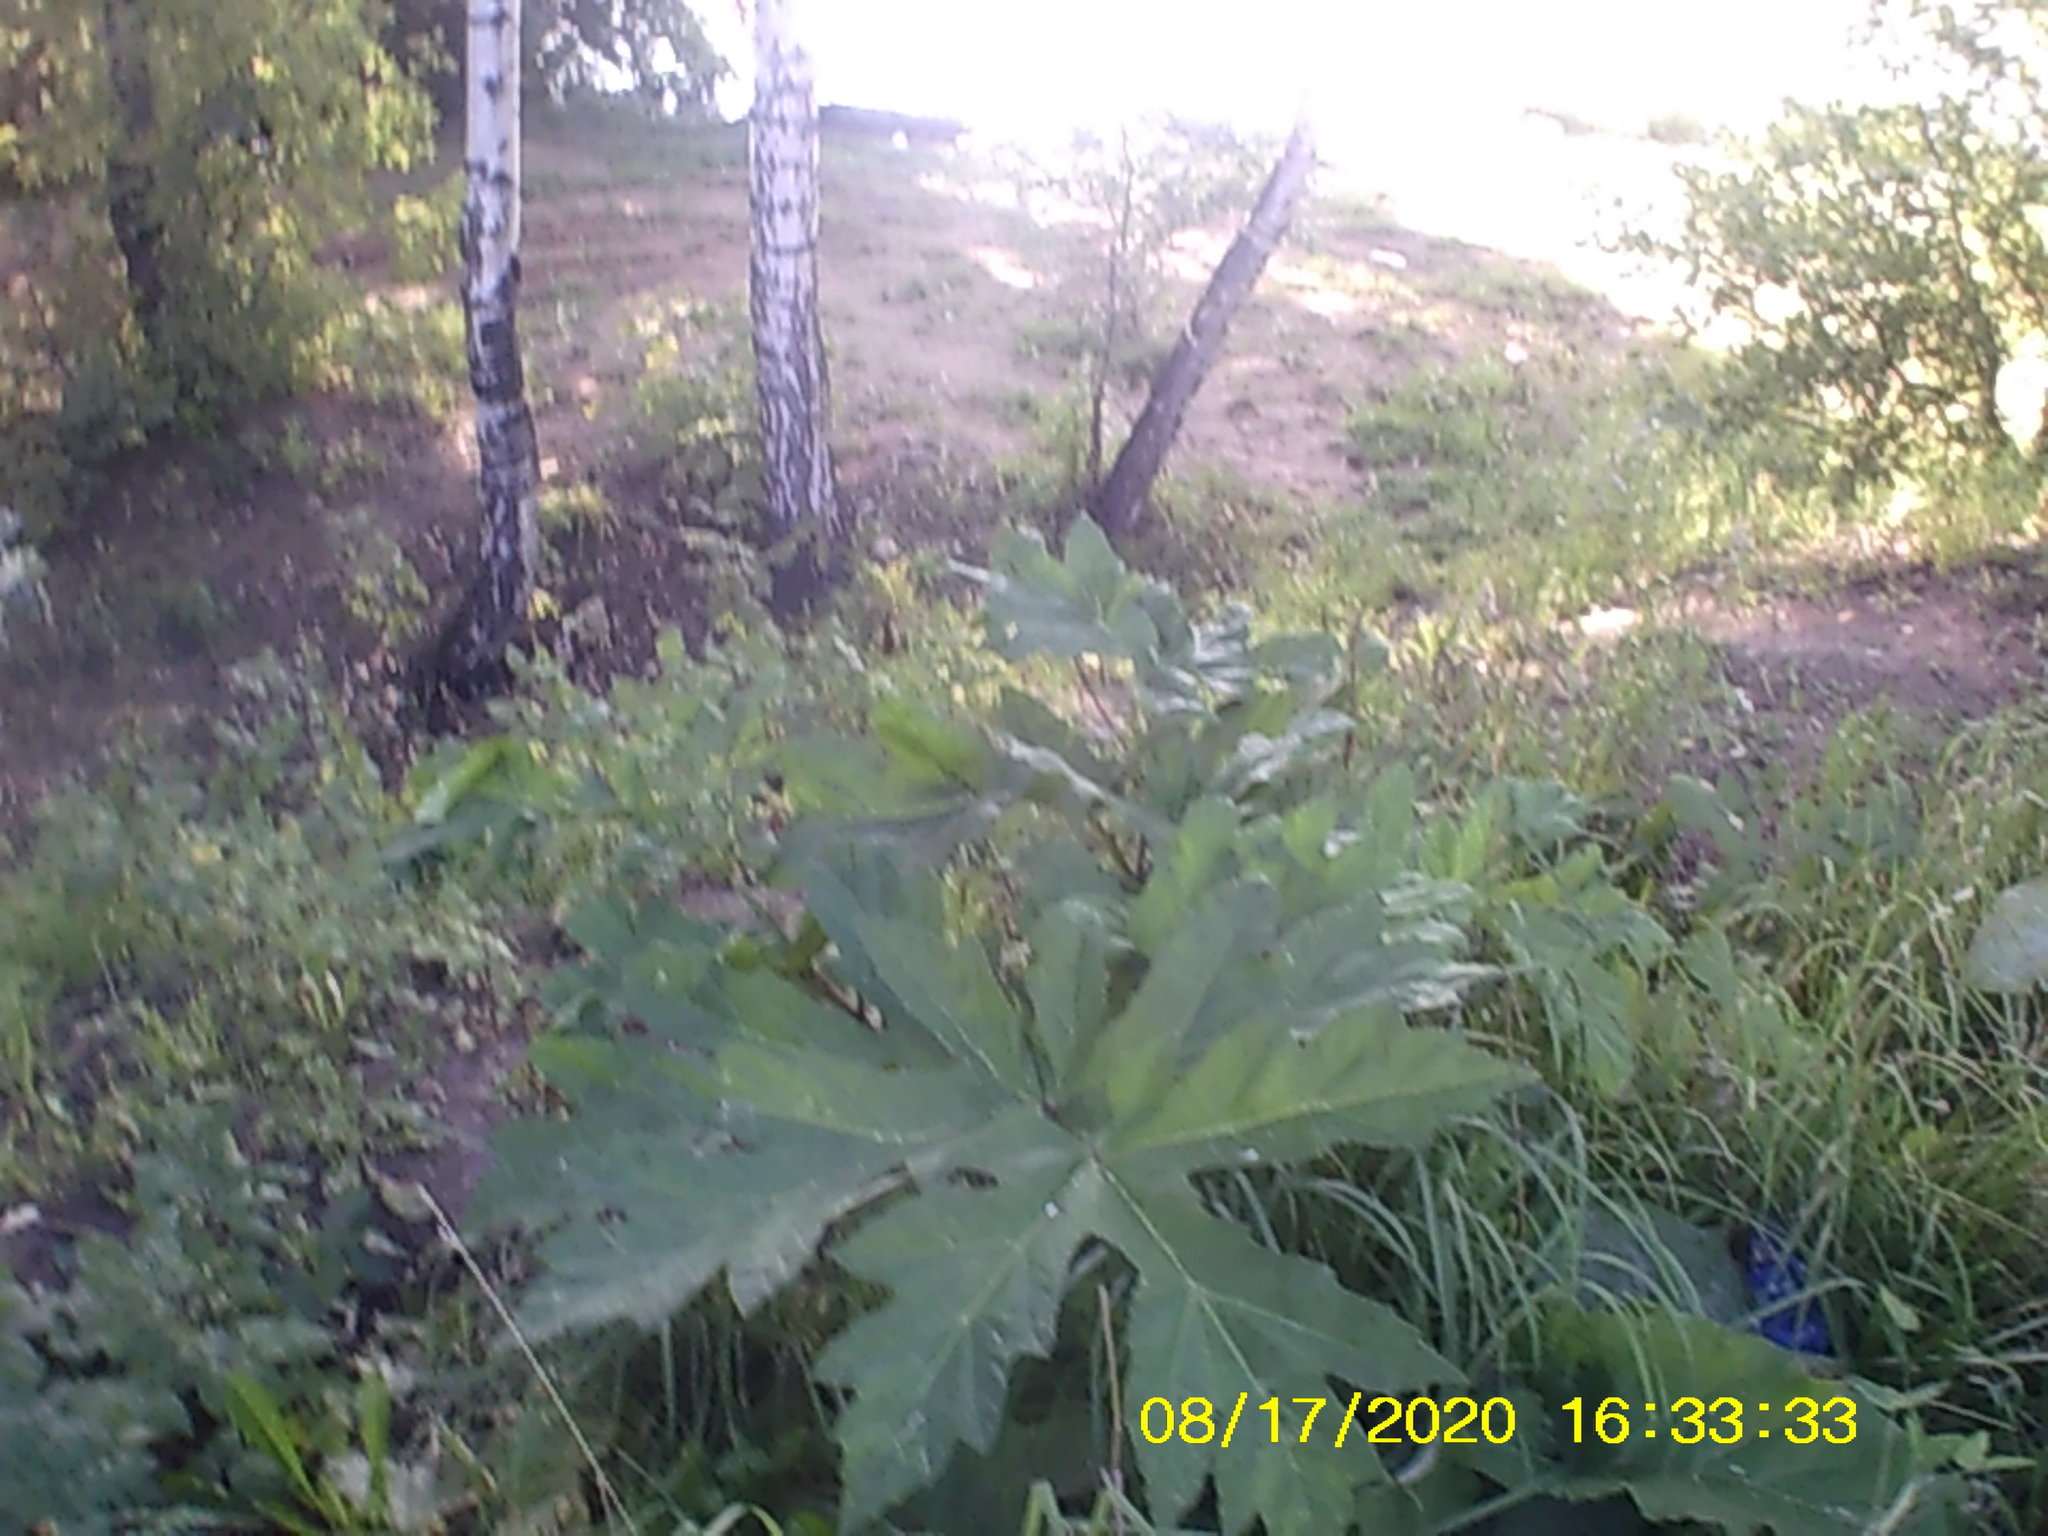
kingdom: Plantae
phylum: Tracheophyta
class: Magnoliopsida
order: Apiales
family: Apiaceae
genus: Heracleum
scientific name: Heracleum sosnowskyi
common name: Sosnowsky's hogweed
